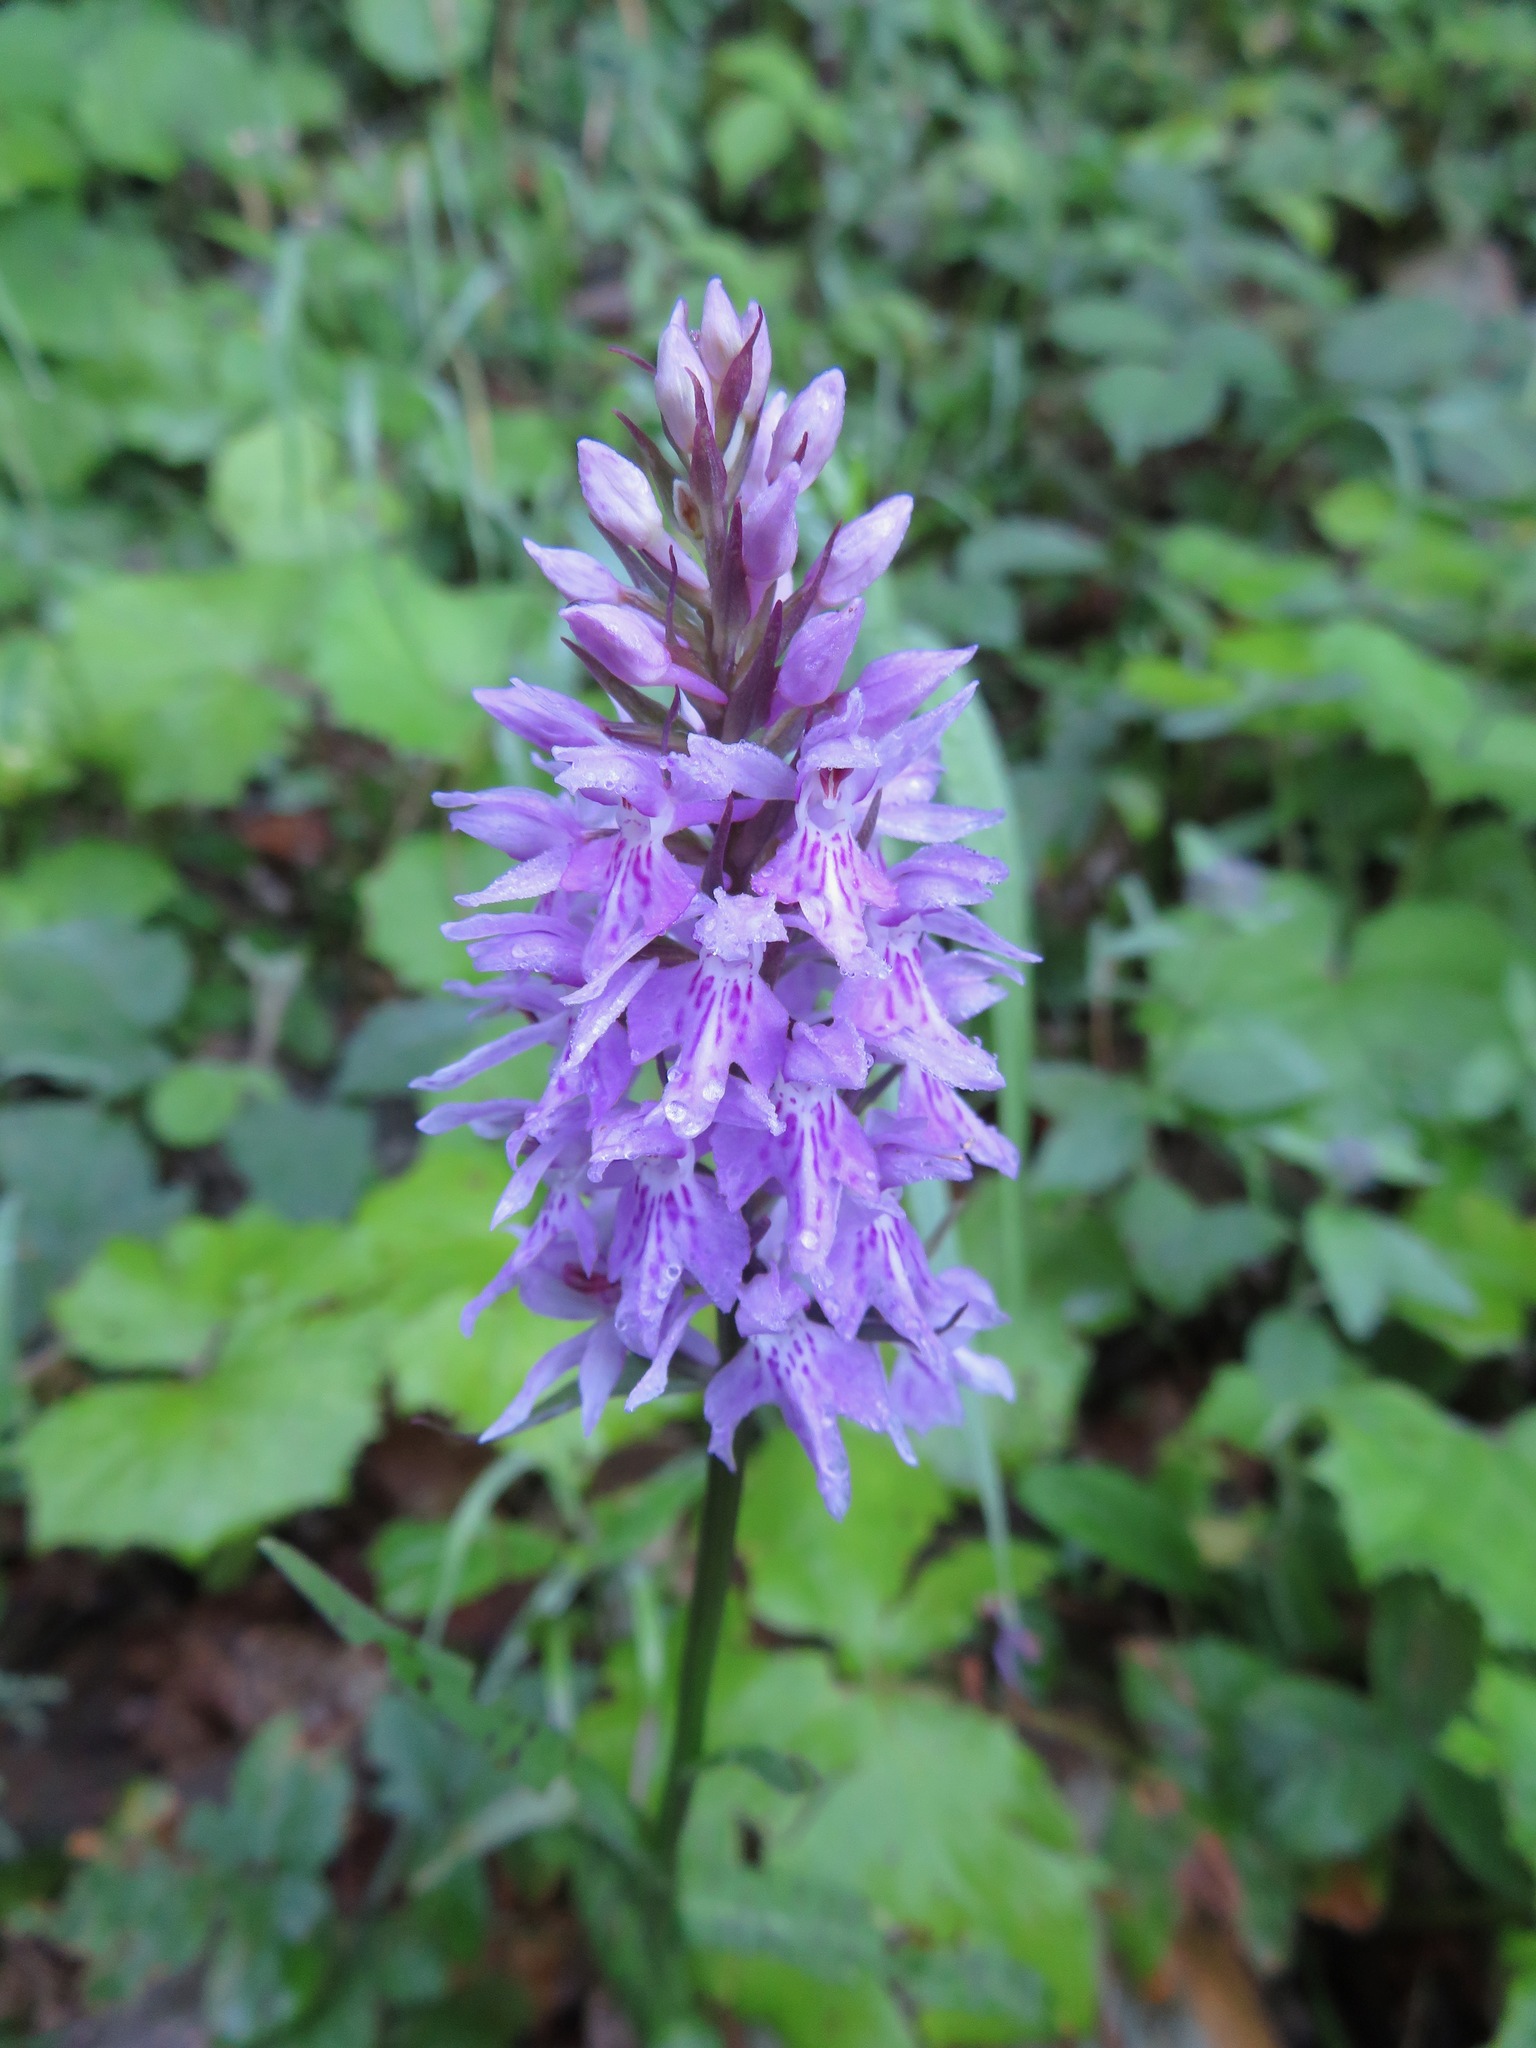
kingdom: Plantae
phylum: Tracheophyta
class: Liliopsida
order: Asparagales
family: Orchidaceae
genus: Dactylorhiza
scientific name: Dactylorhiza maculata
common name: Heath spotted-orchid
